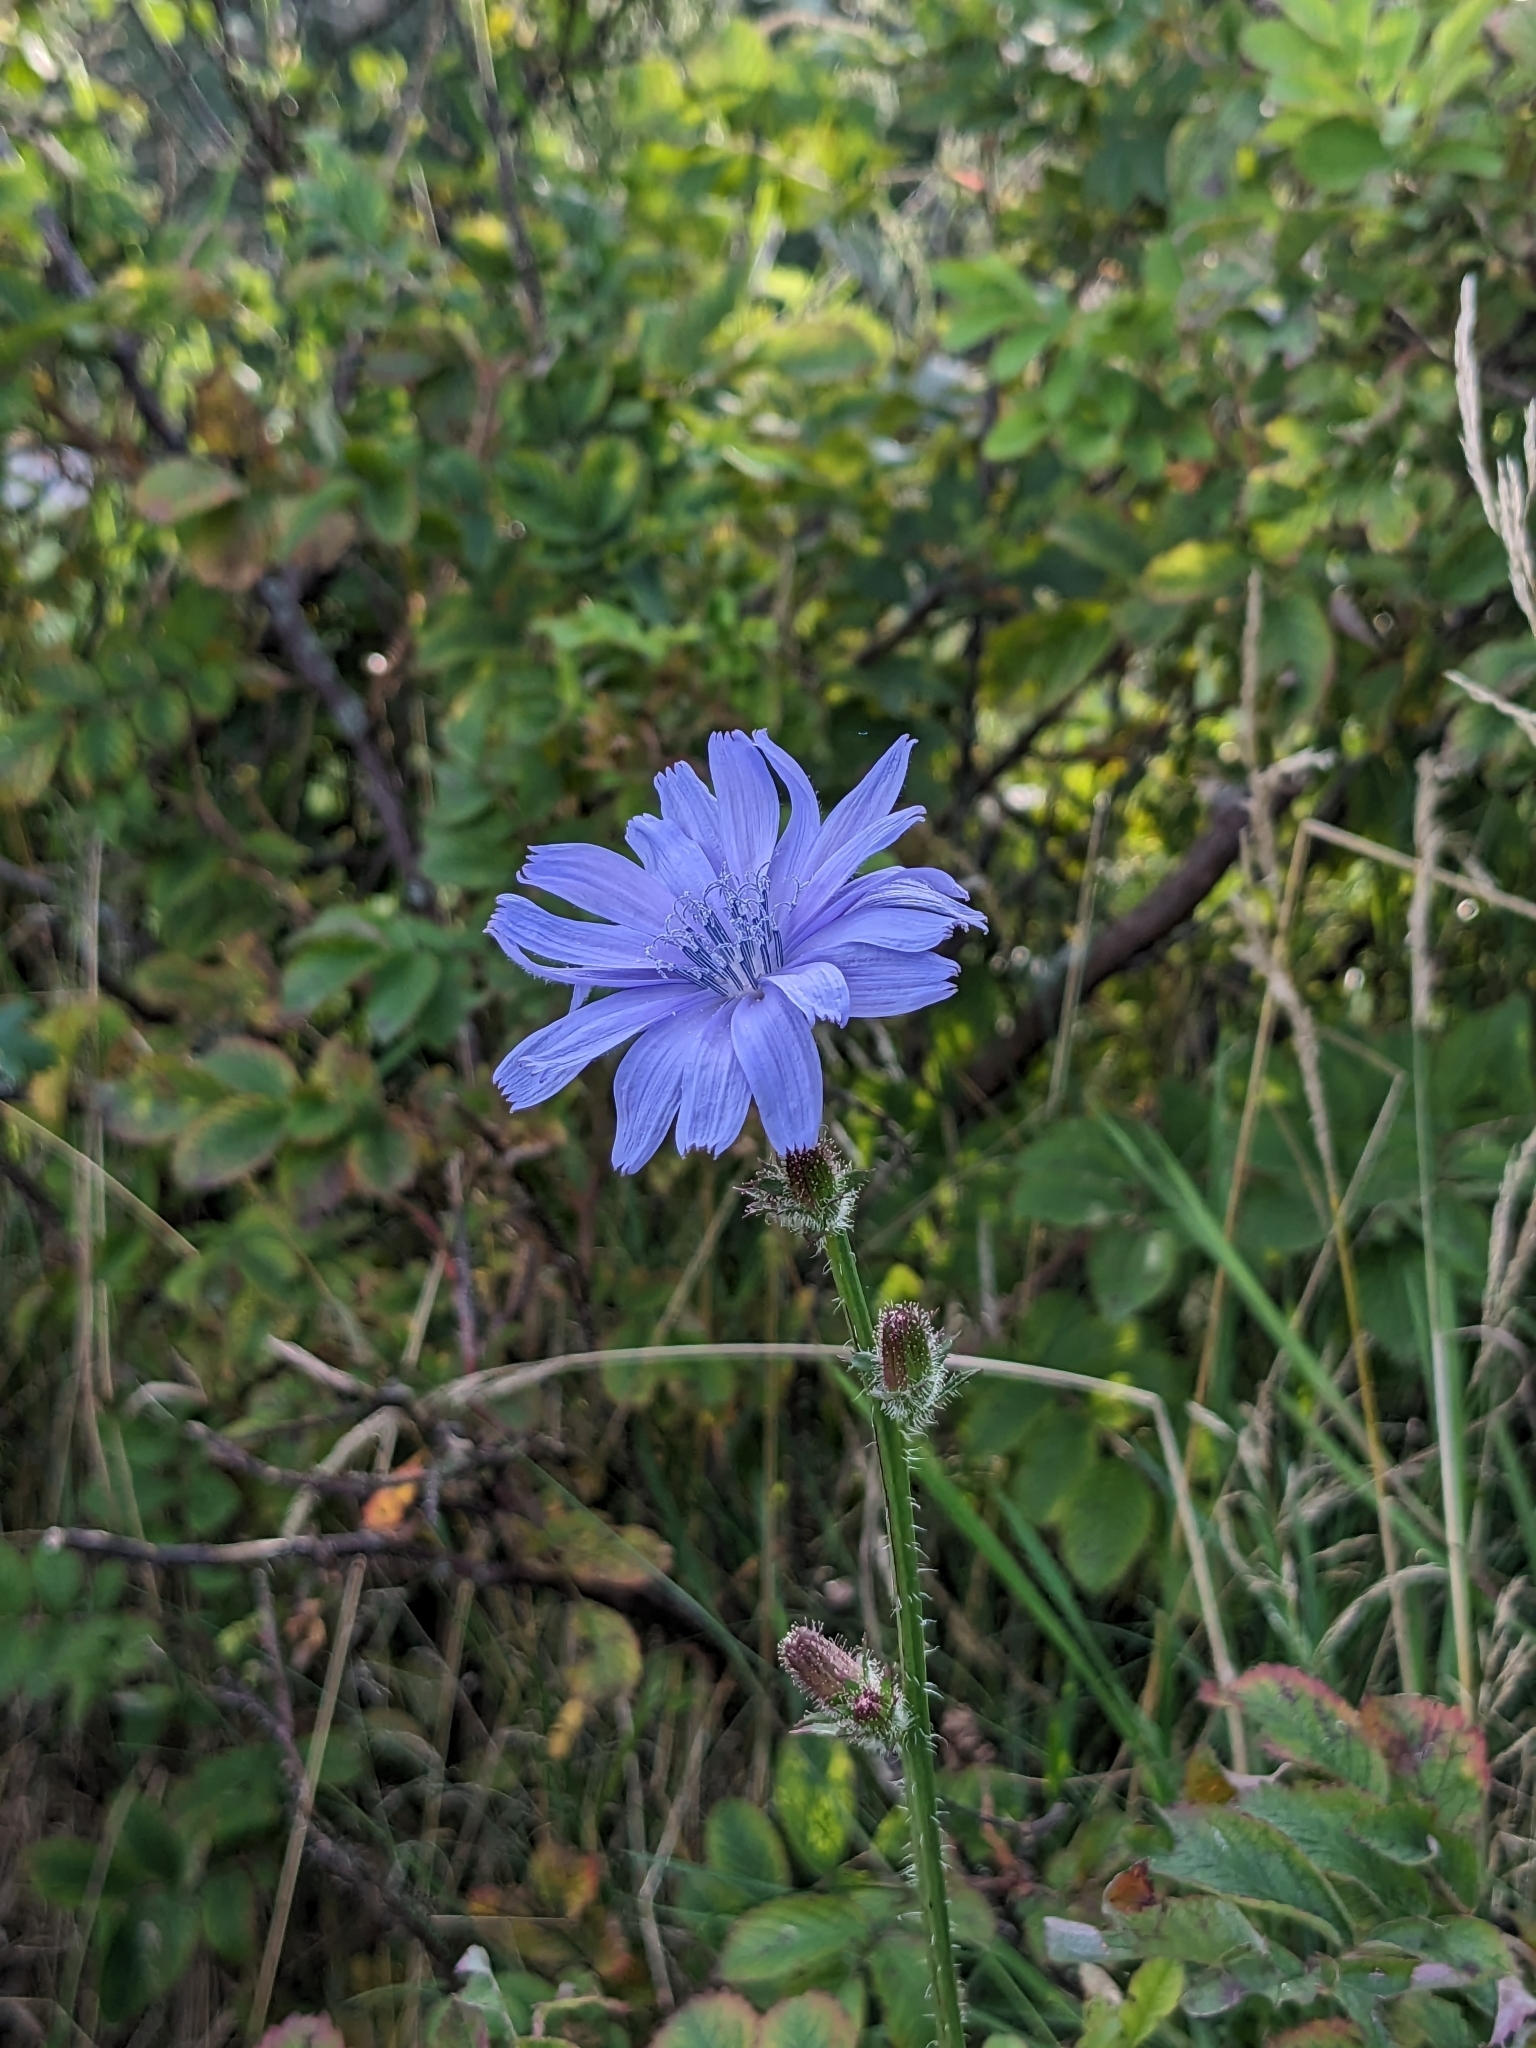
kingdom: Plantae
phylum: Tracheophyta
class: Magnoliopsida
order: Asterales
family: Asteraceae
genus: Cichorium
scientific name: Cichorium intybus
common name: Chicory
